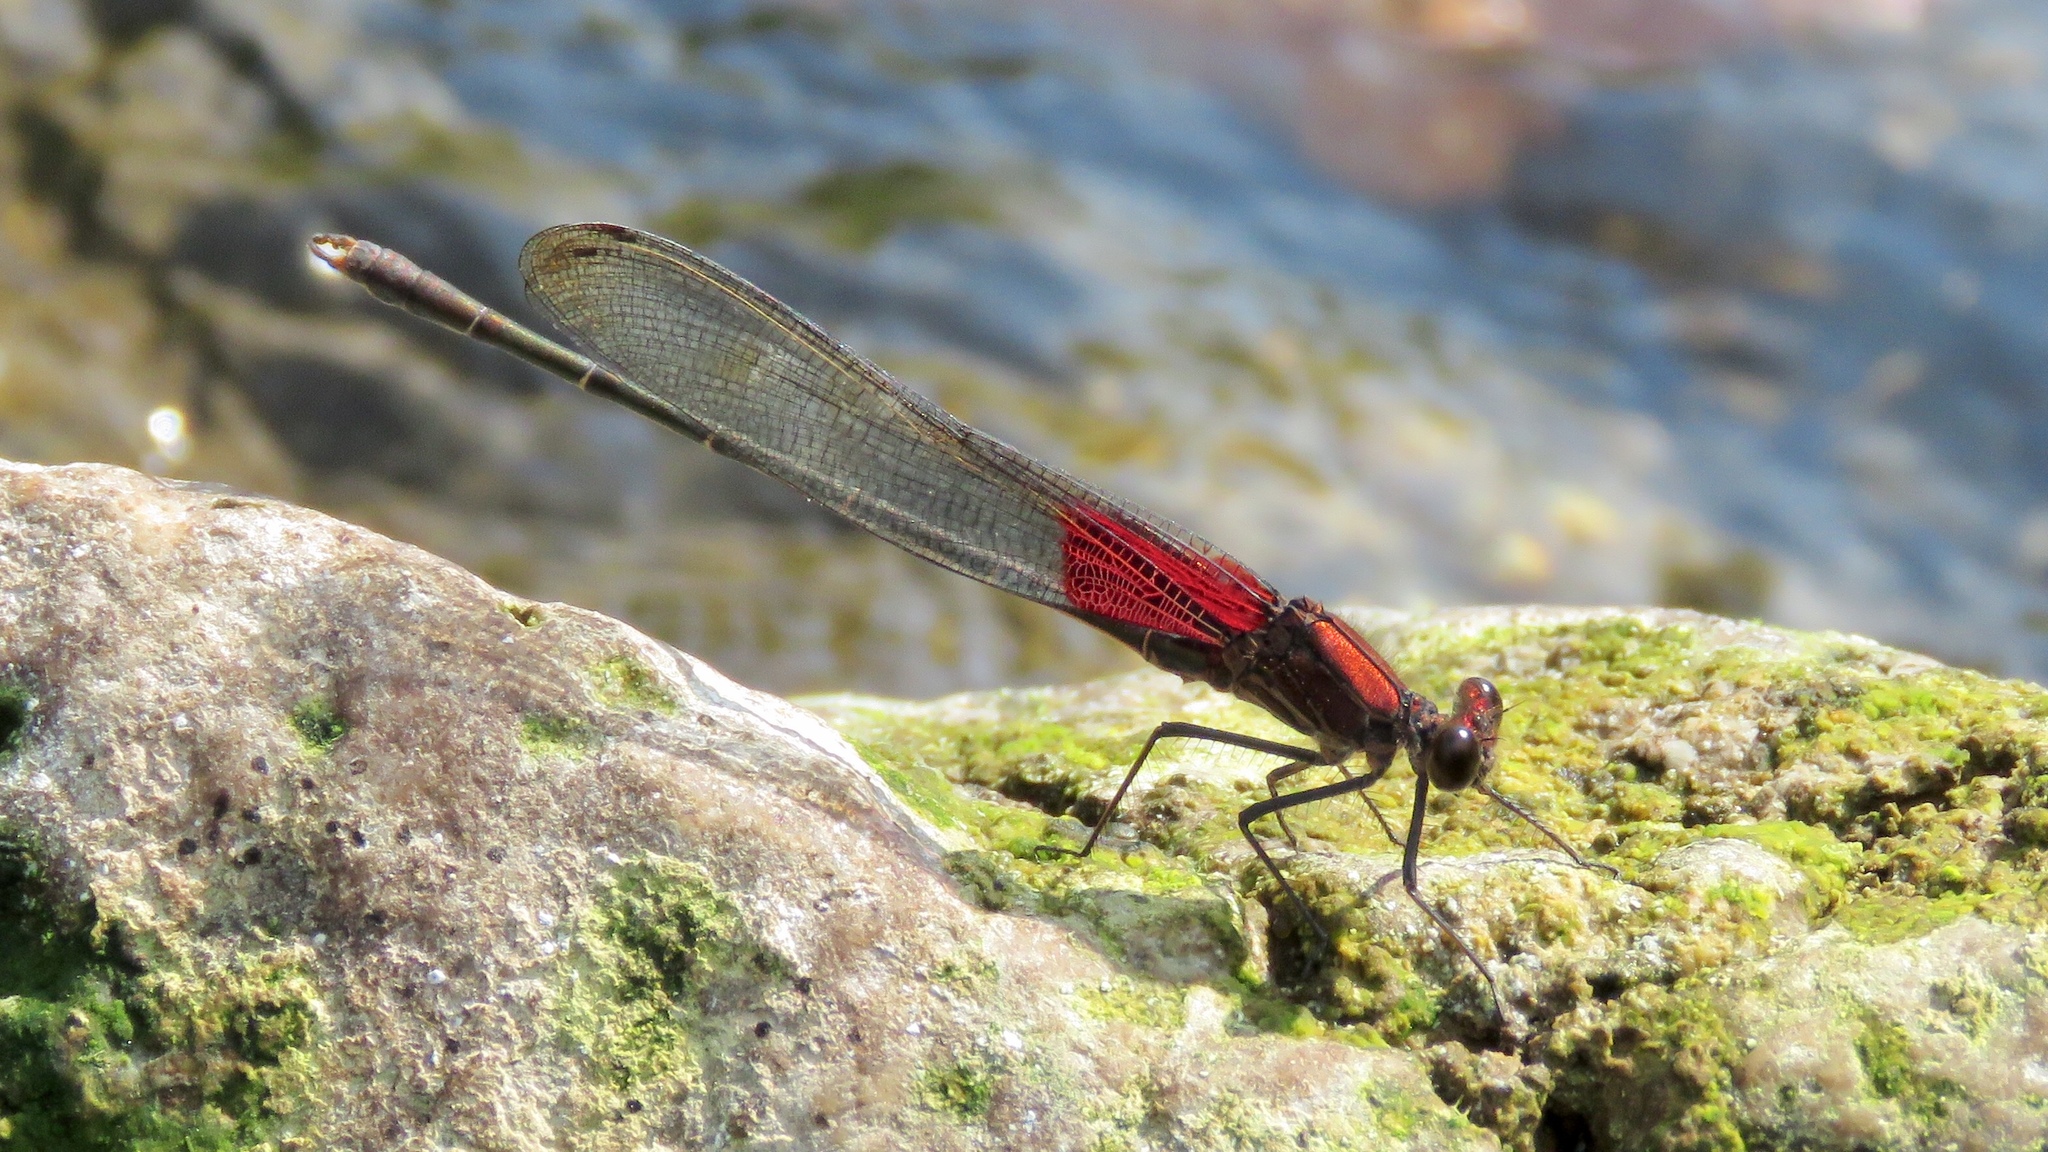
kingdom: Animalia
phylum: Arthropoda
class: Insecta
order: Odonata
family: Calopterygidae
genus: Hetaerina
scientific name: Hetaerina americana
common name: American rubyspot
